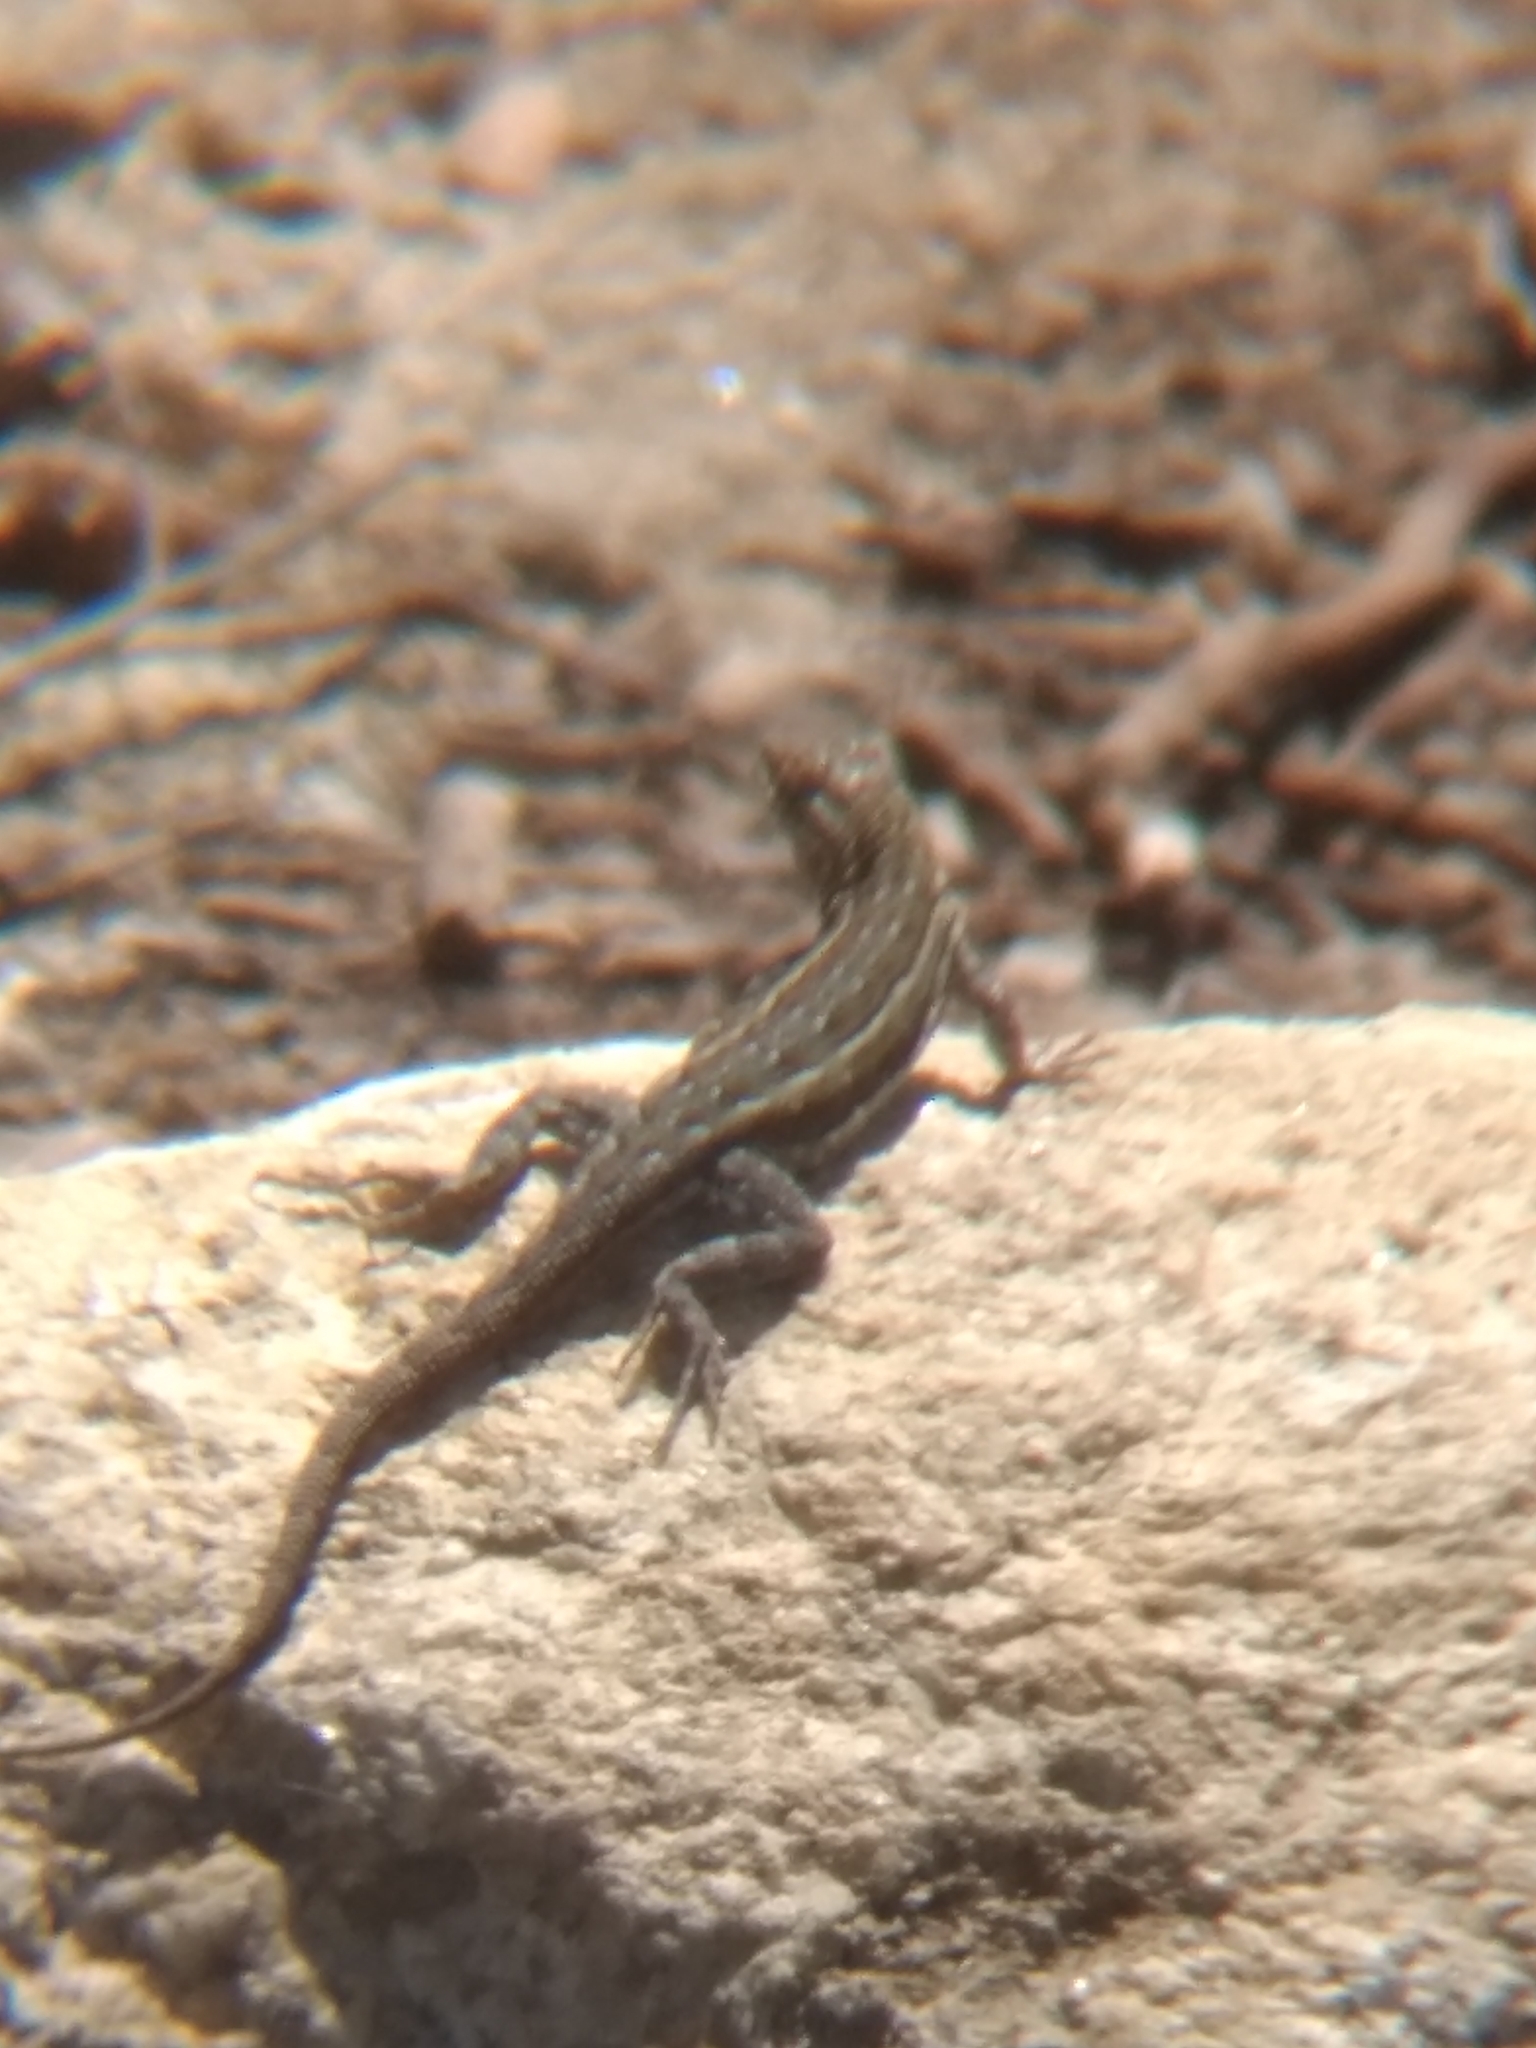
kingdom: Animalia
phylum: Chordata
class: Squamata
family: Phrynosomatidae
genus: Uta
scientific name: Uta stansburiana
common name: Side-blotched lizard
